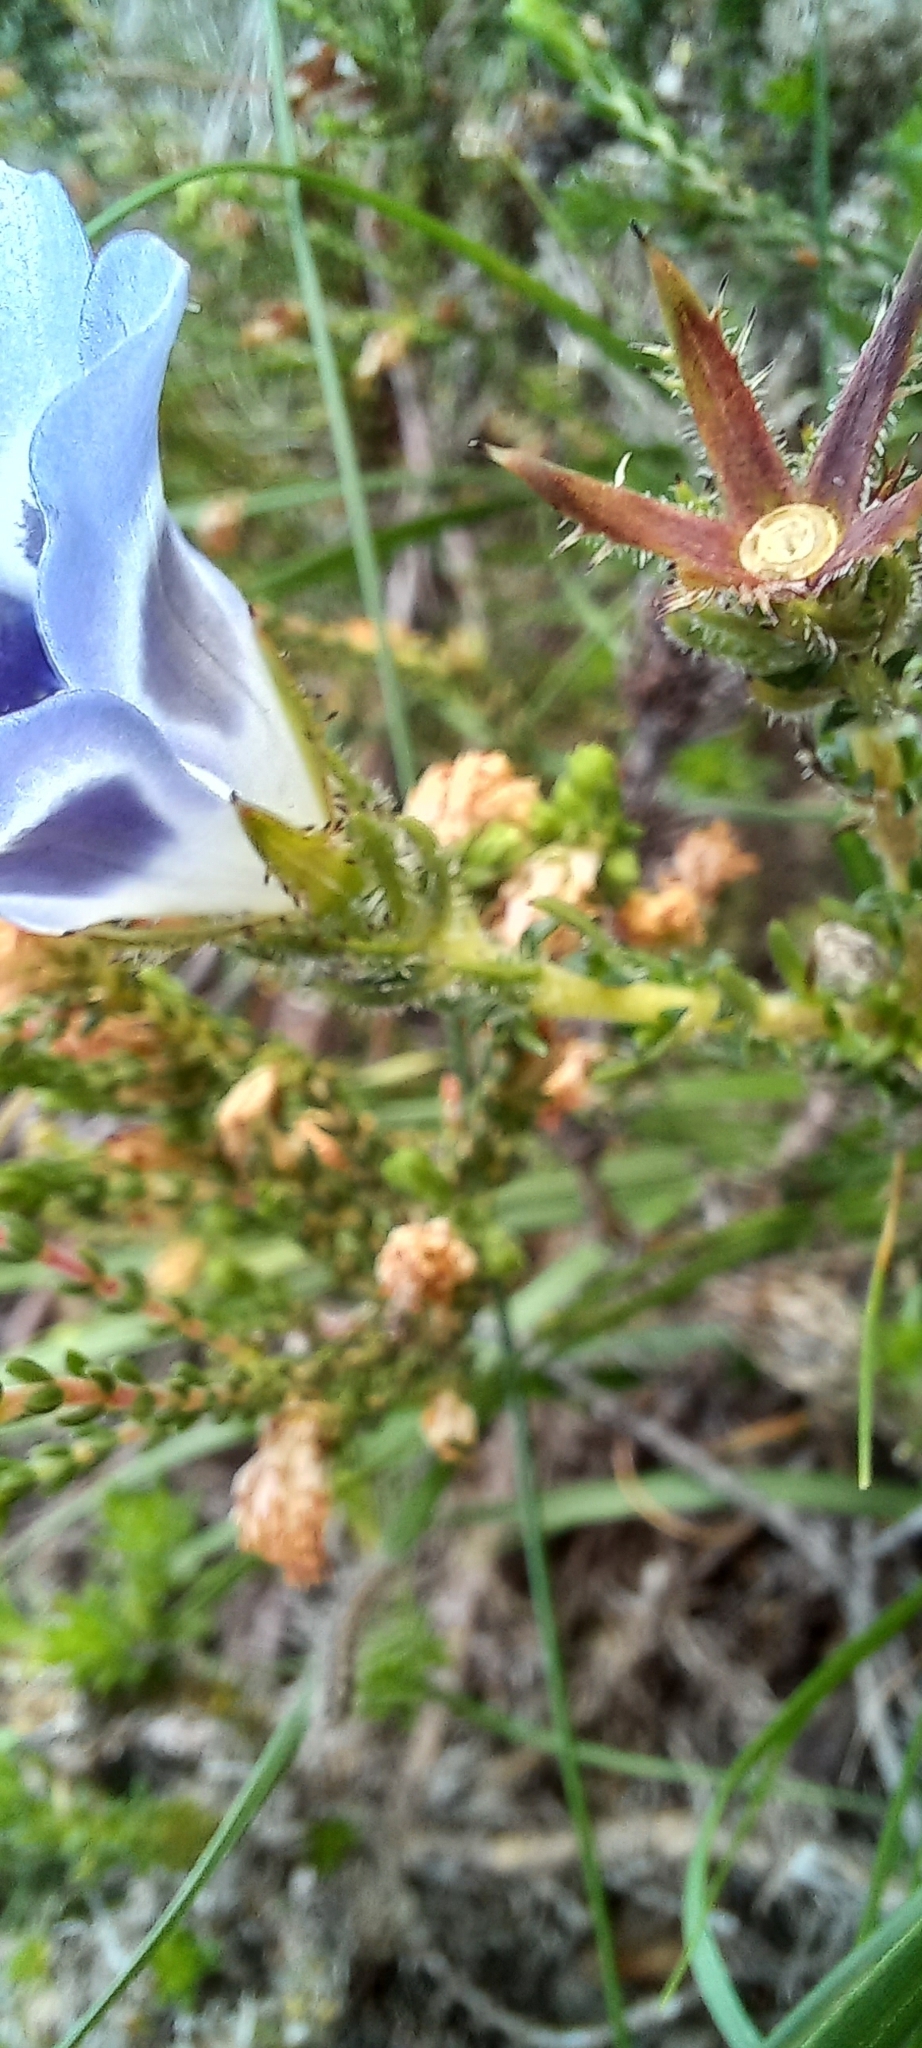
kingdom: Plantae
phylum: Tracheophyta
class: Magnoliopsida
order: Asterales
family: Campanulaceae
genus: Roella
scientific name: Roella ciliata
